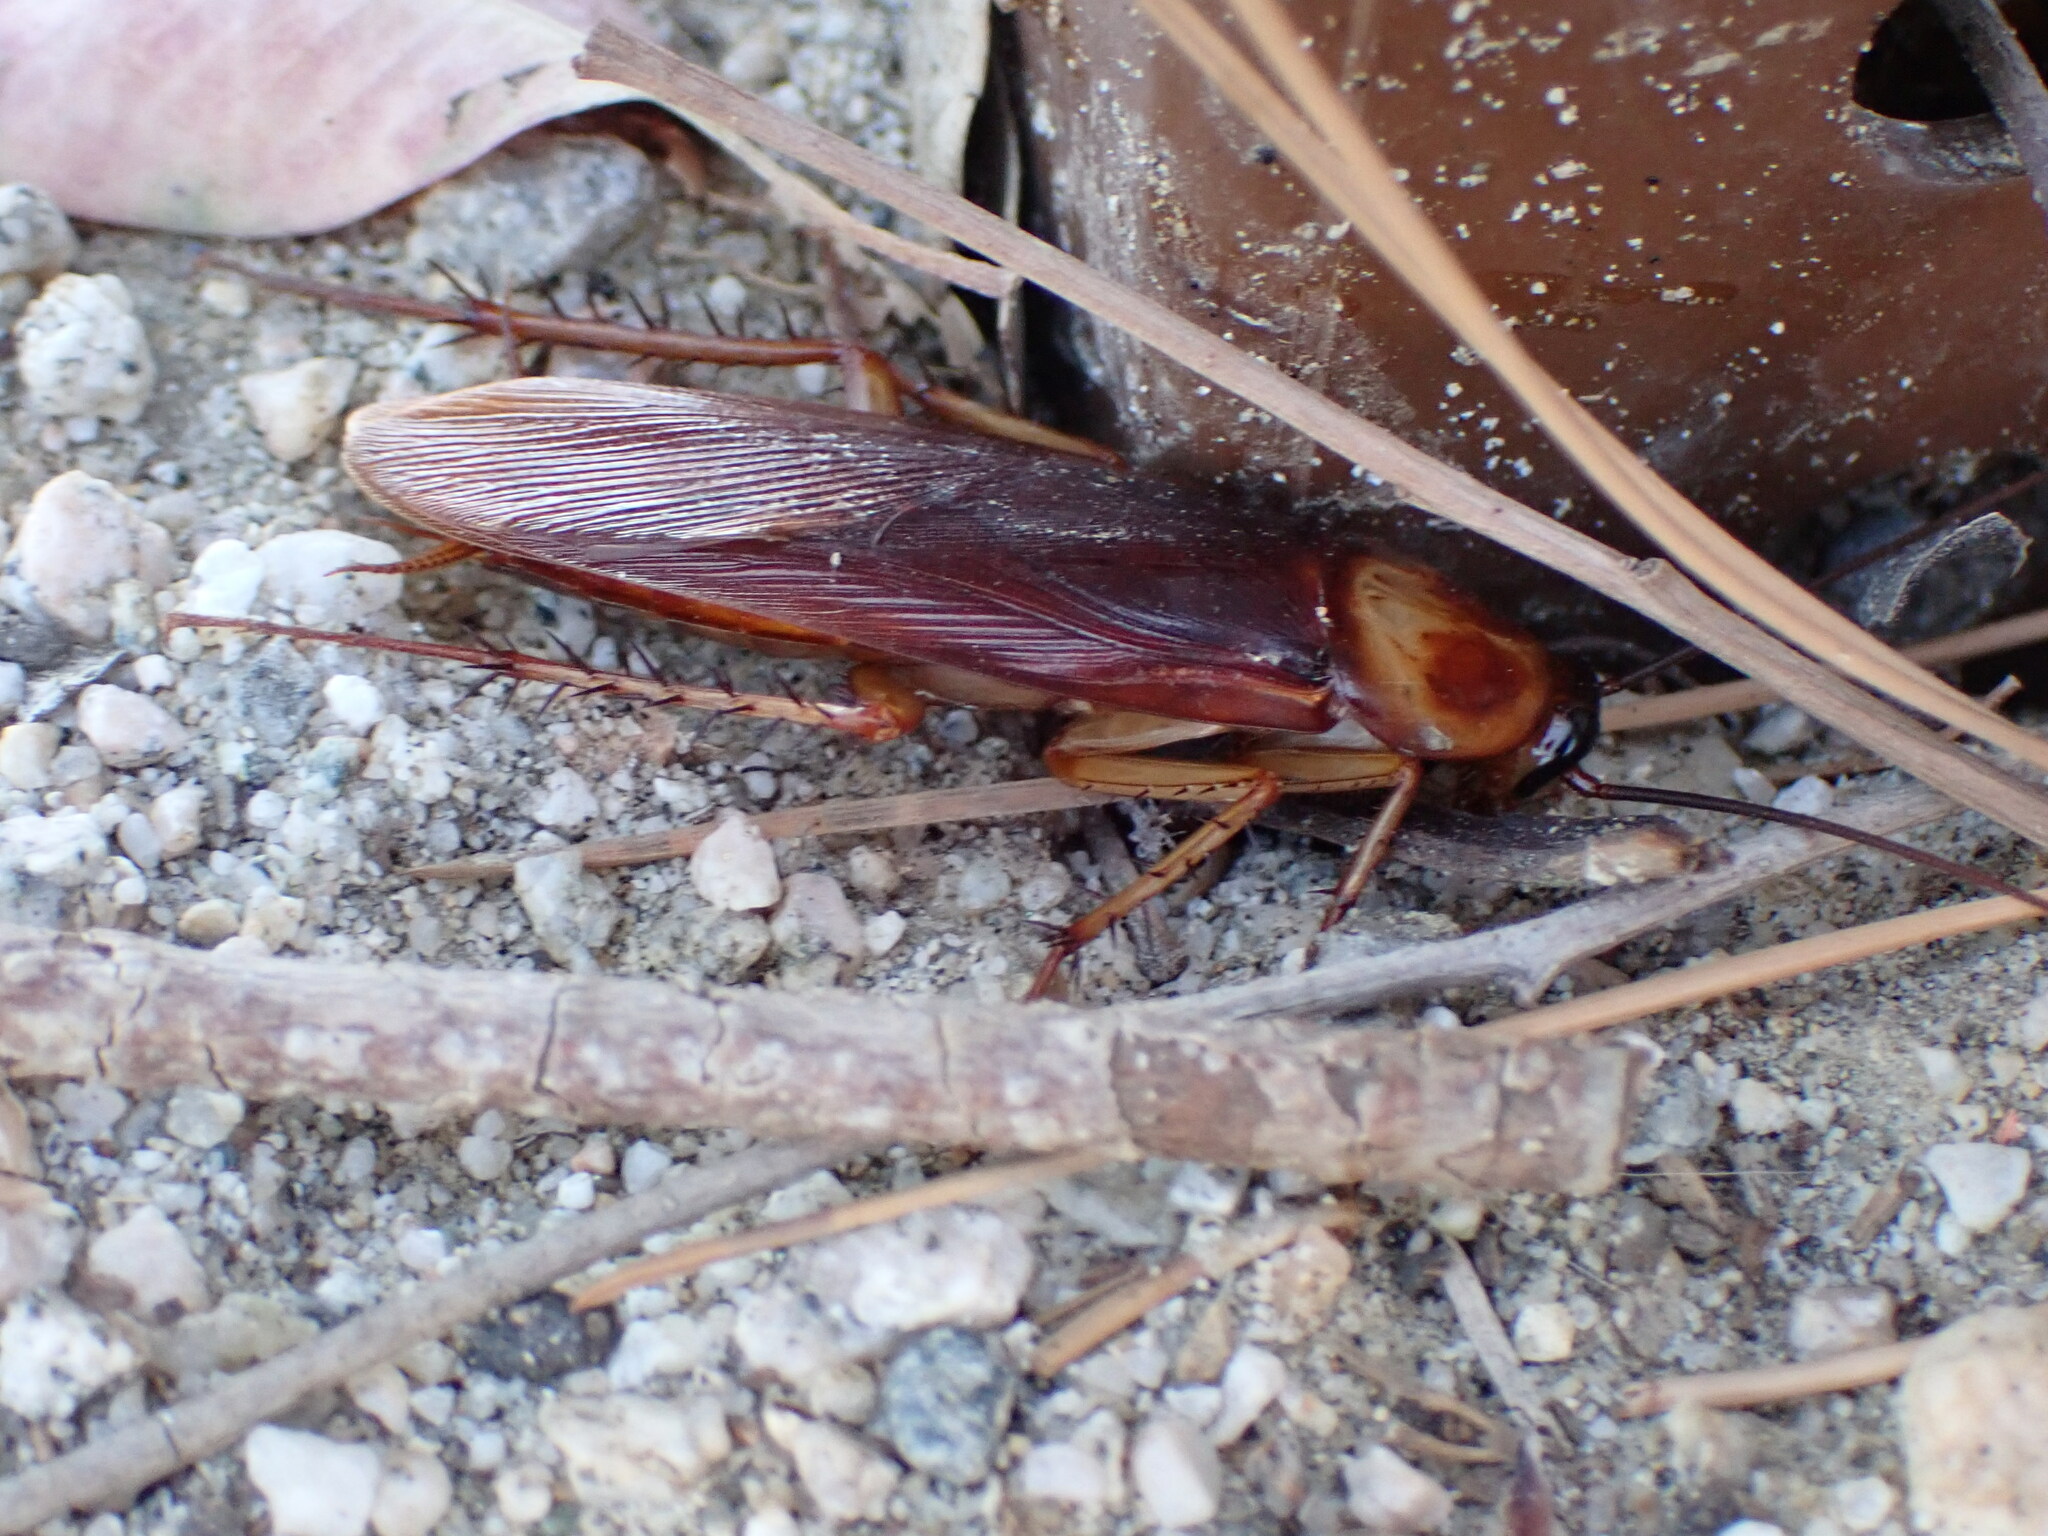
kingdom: Animalia
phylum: Arthropoda
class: Insecta
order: Blattodea
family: Blattidae
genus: Periplaneta
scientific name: Periplaneta americana
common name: American cockroach
